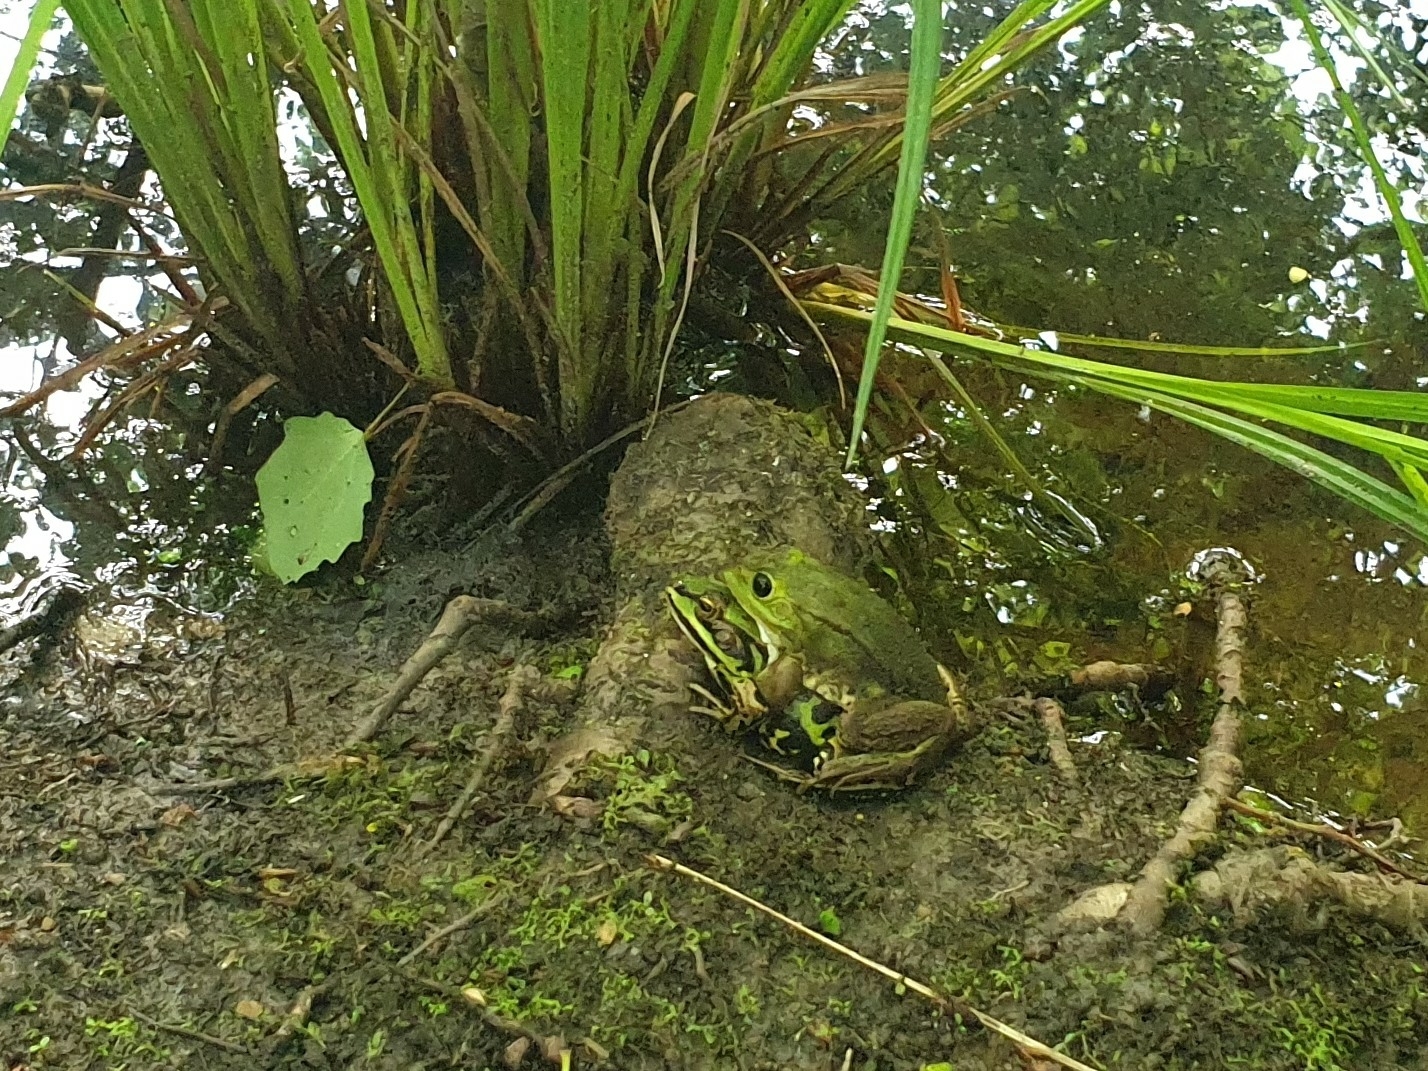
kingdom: Animalia
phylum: Chordata
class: Amphibia
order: Anura
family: Ranidae
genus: Pelophylax
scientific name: Pelophylax ridibundus
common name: Marsh frog
